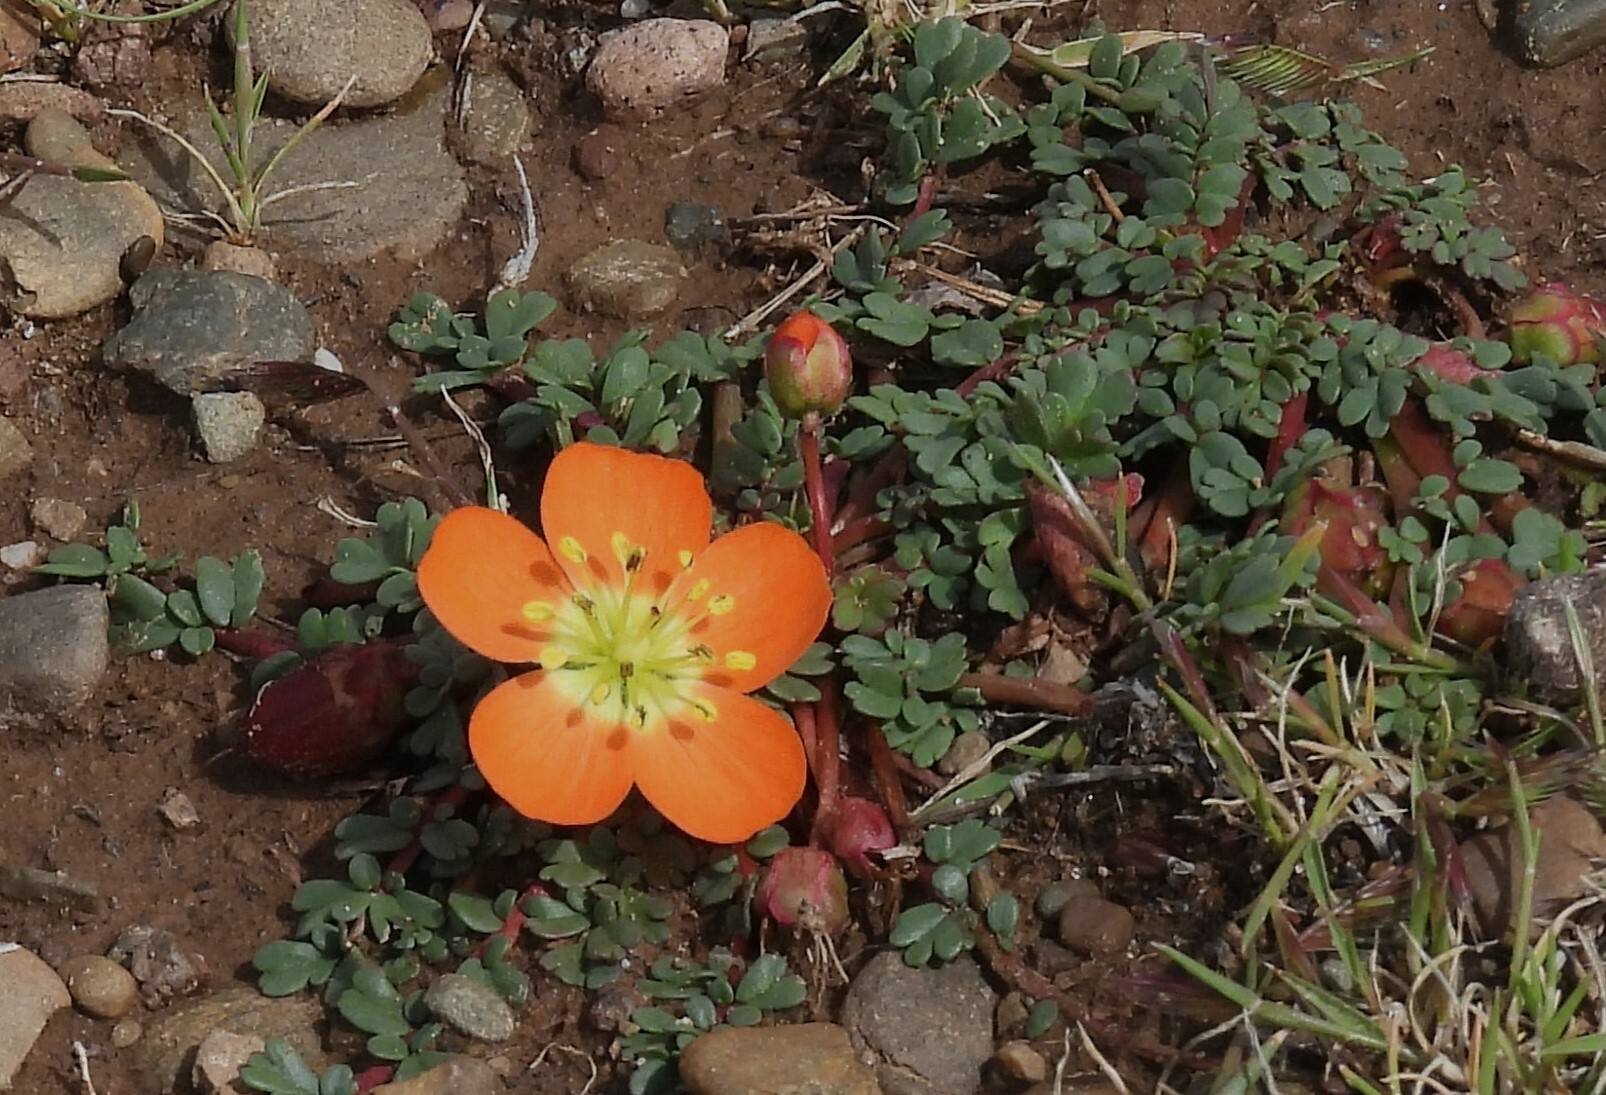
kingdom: Plantae
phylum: Tracheophyta
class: Magnoliopsida
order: Geraniales
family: Hypseocharitaceae
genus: Hypseocharis
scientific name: Hypseocharis pimpinellifolia
